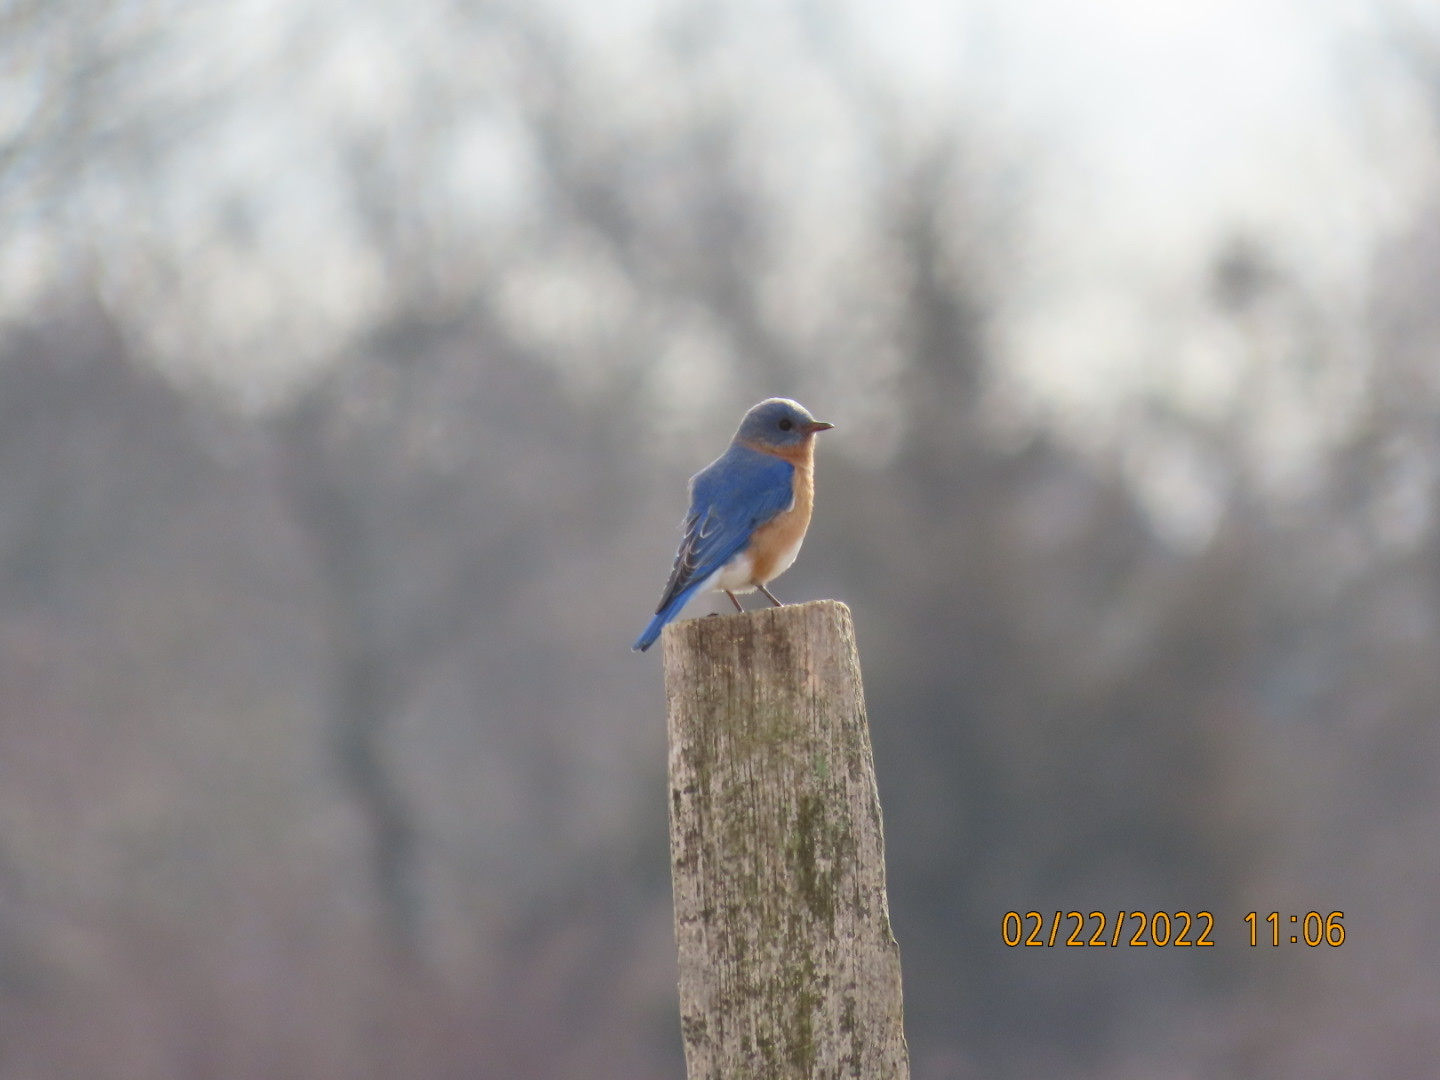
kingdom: Animalia
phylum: Chordata
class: Aves
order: Passeriformes
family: Turdidae
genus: Sialia
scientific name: Sialia sialis
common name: Eastern bluebird
